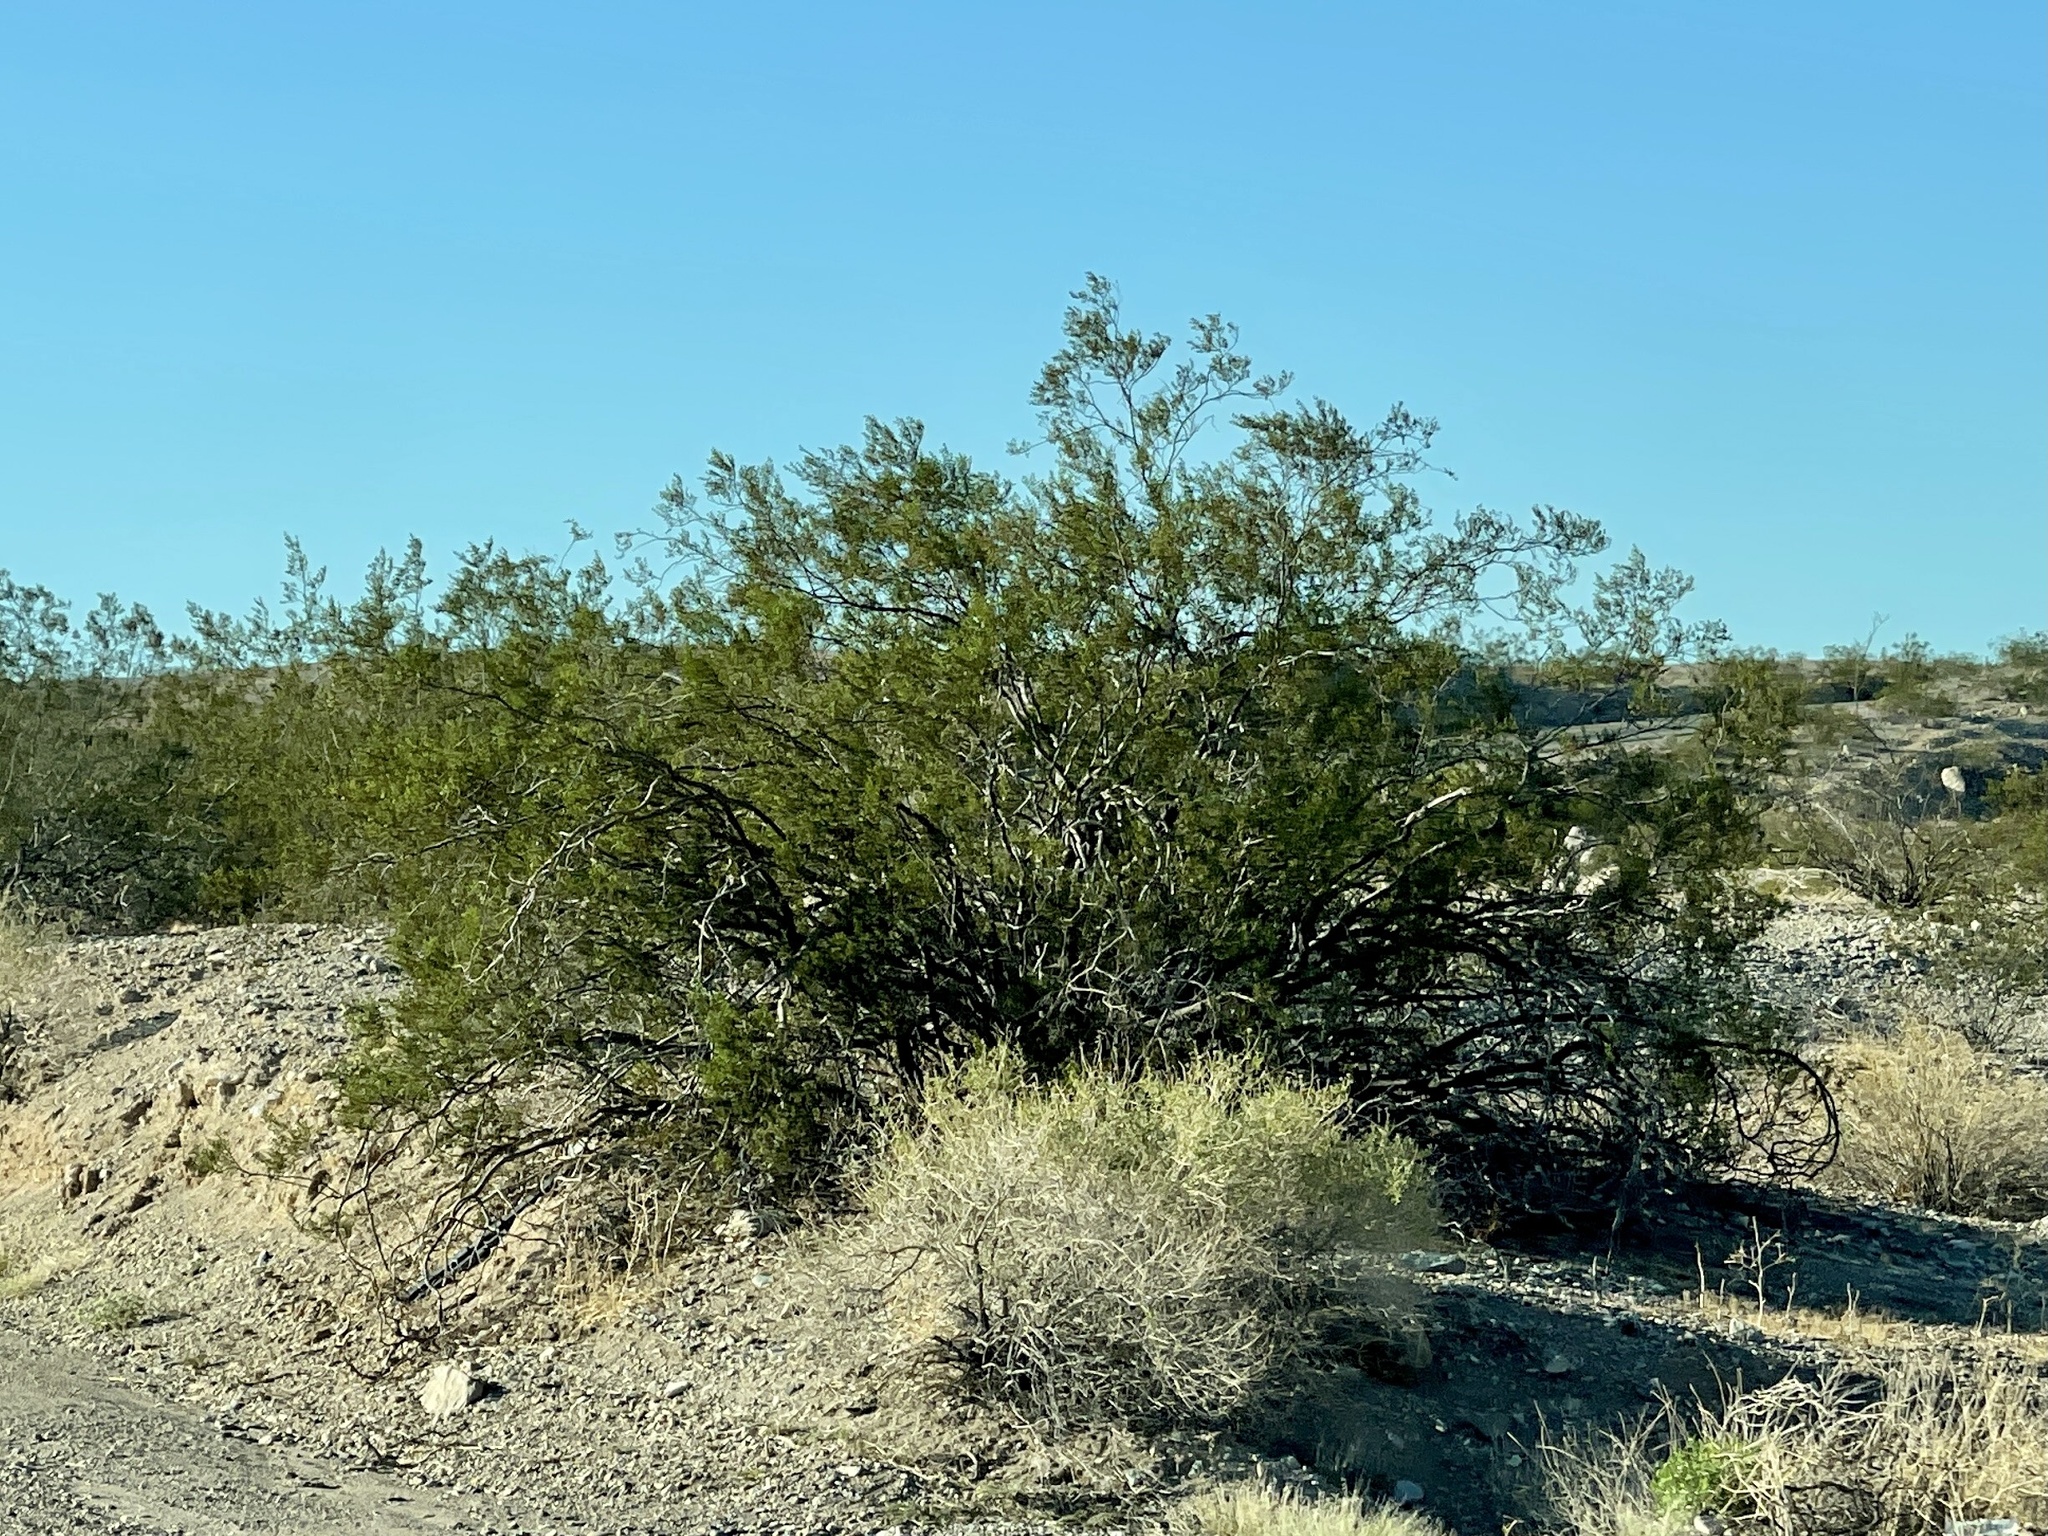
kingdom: Plantae
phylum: Tracheophyta
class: Magnoliopsida
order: Zygophyllales
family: Zygophyllaceae
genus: Larrea
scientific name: Larrea tridentata
